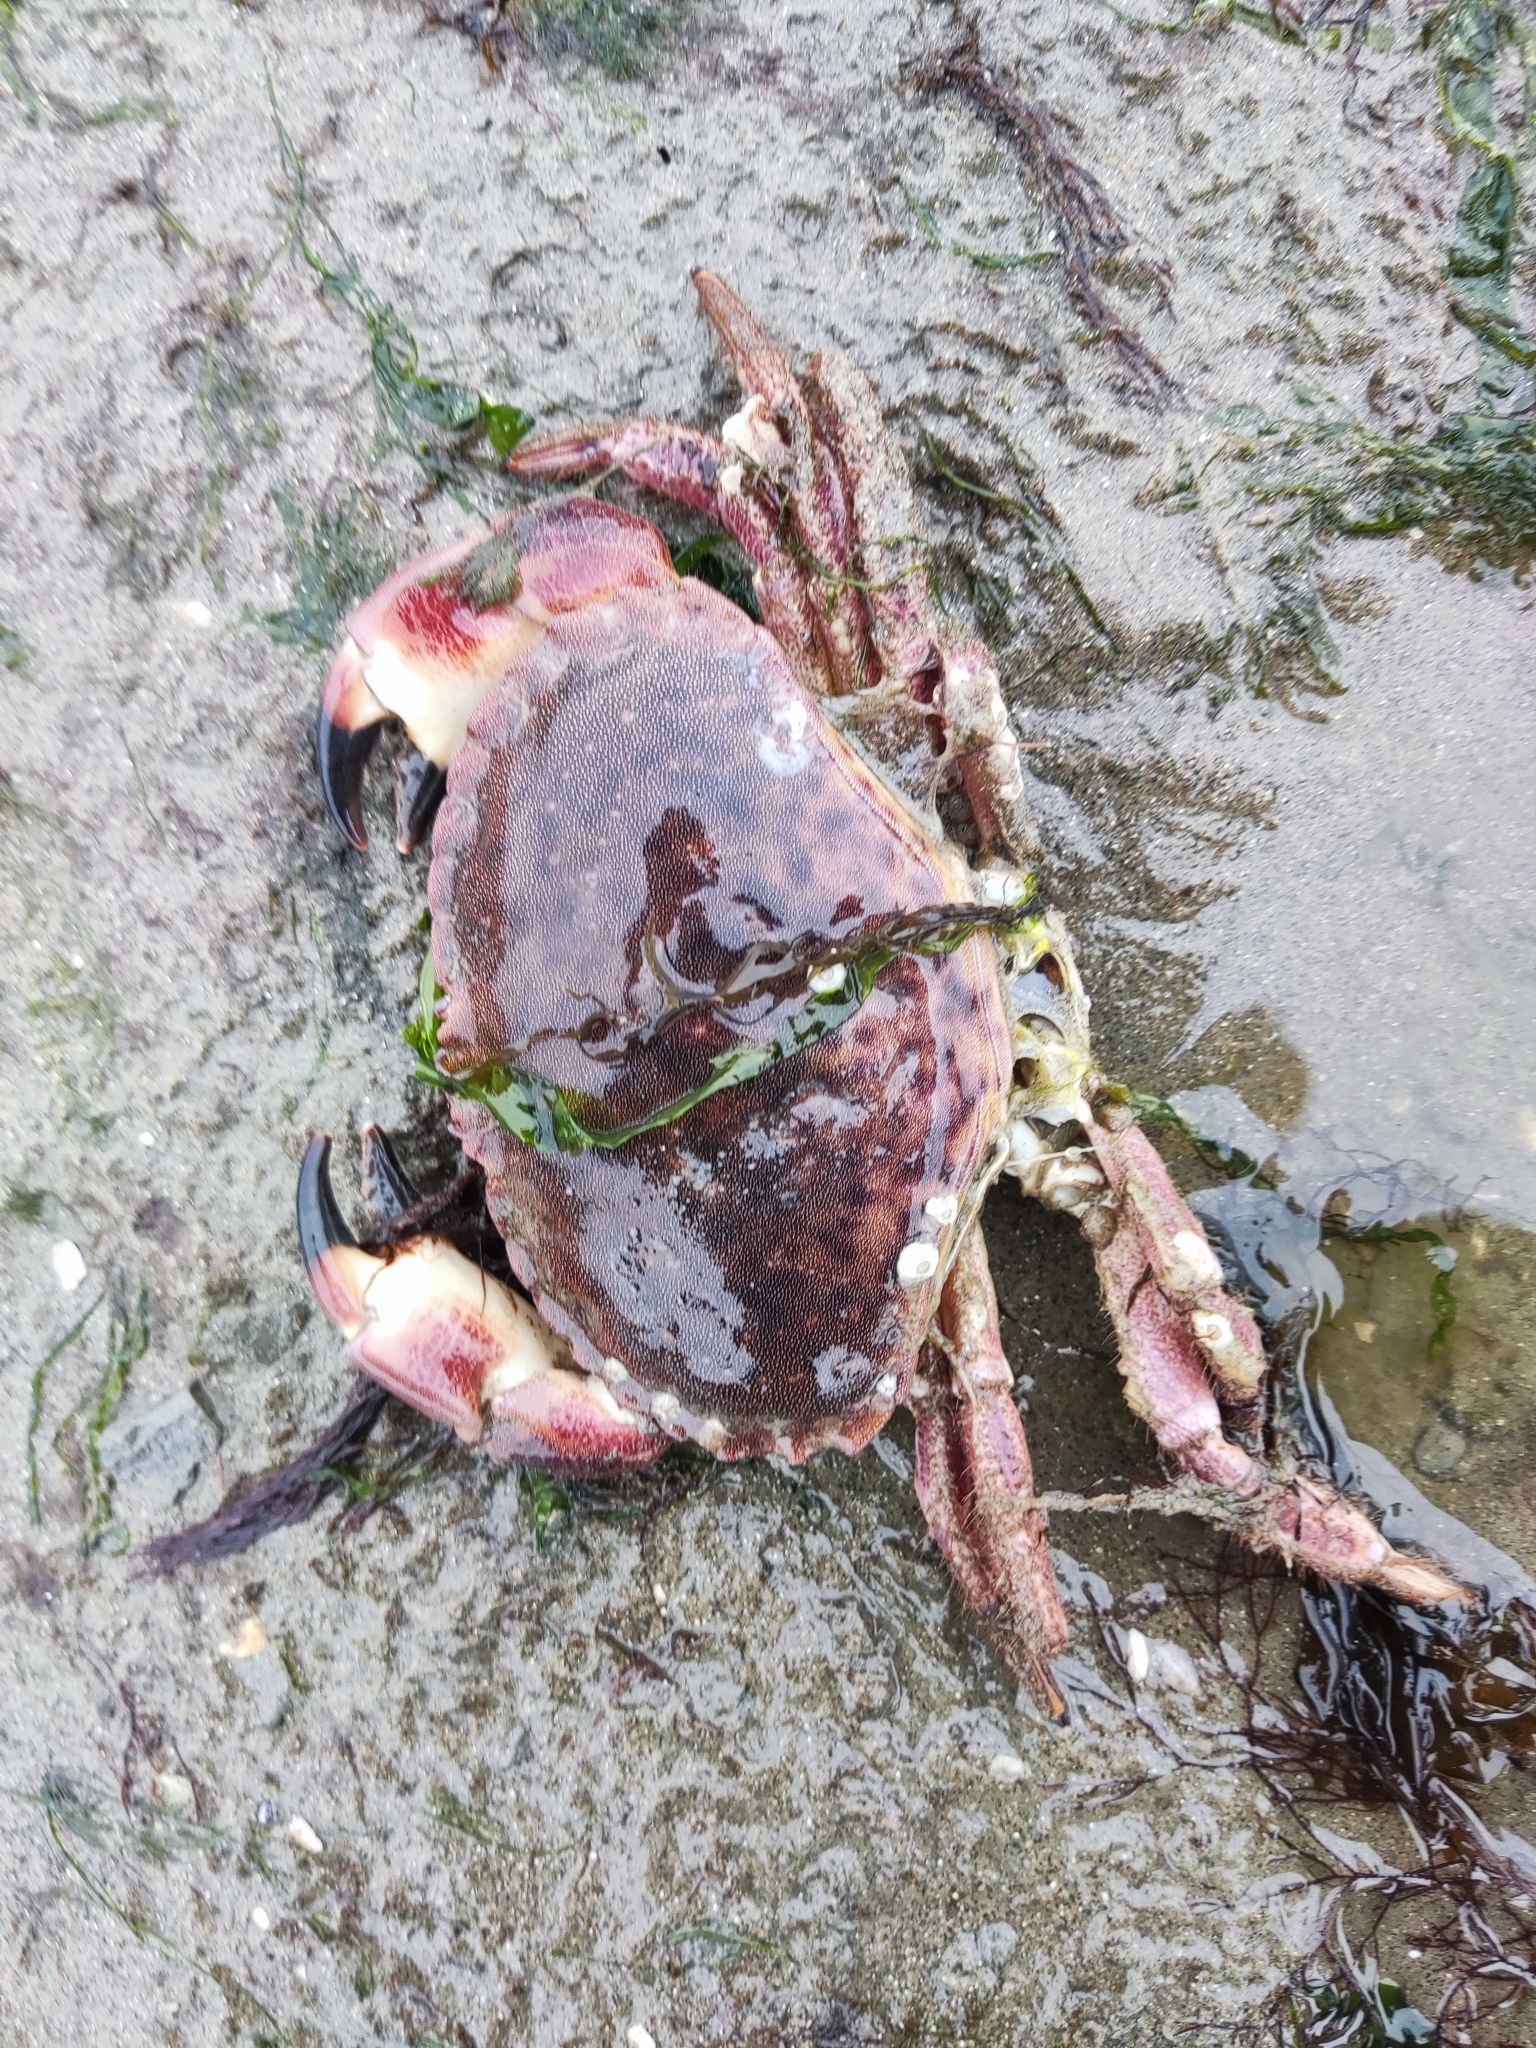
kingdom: Animalia
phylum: Arthropoda
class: Malacostraca
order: Decapoda
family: Cancridae
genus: Cancer
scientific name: Cancer pagurus
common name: Edible crab
